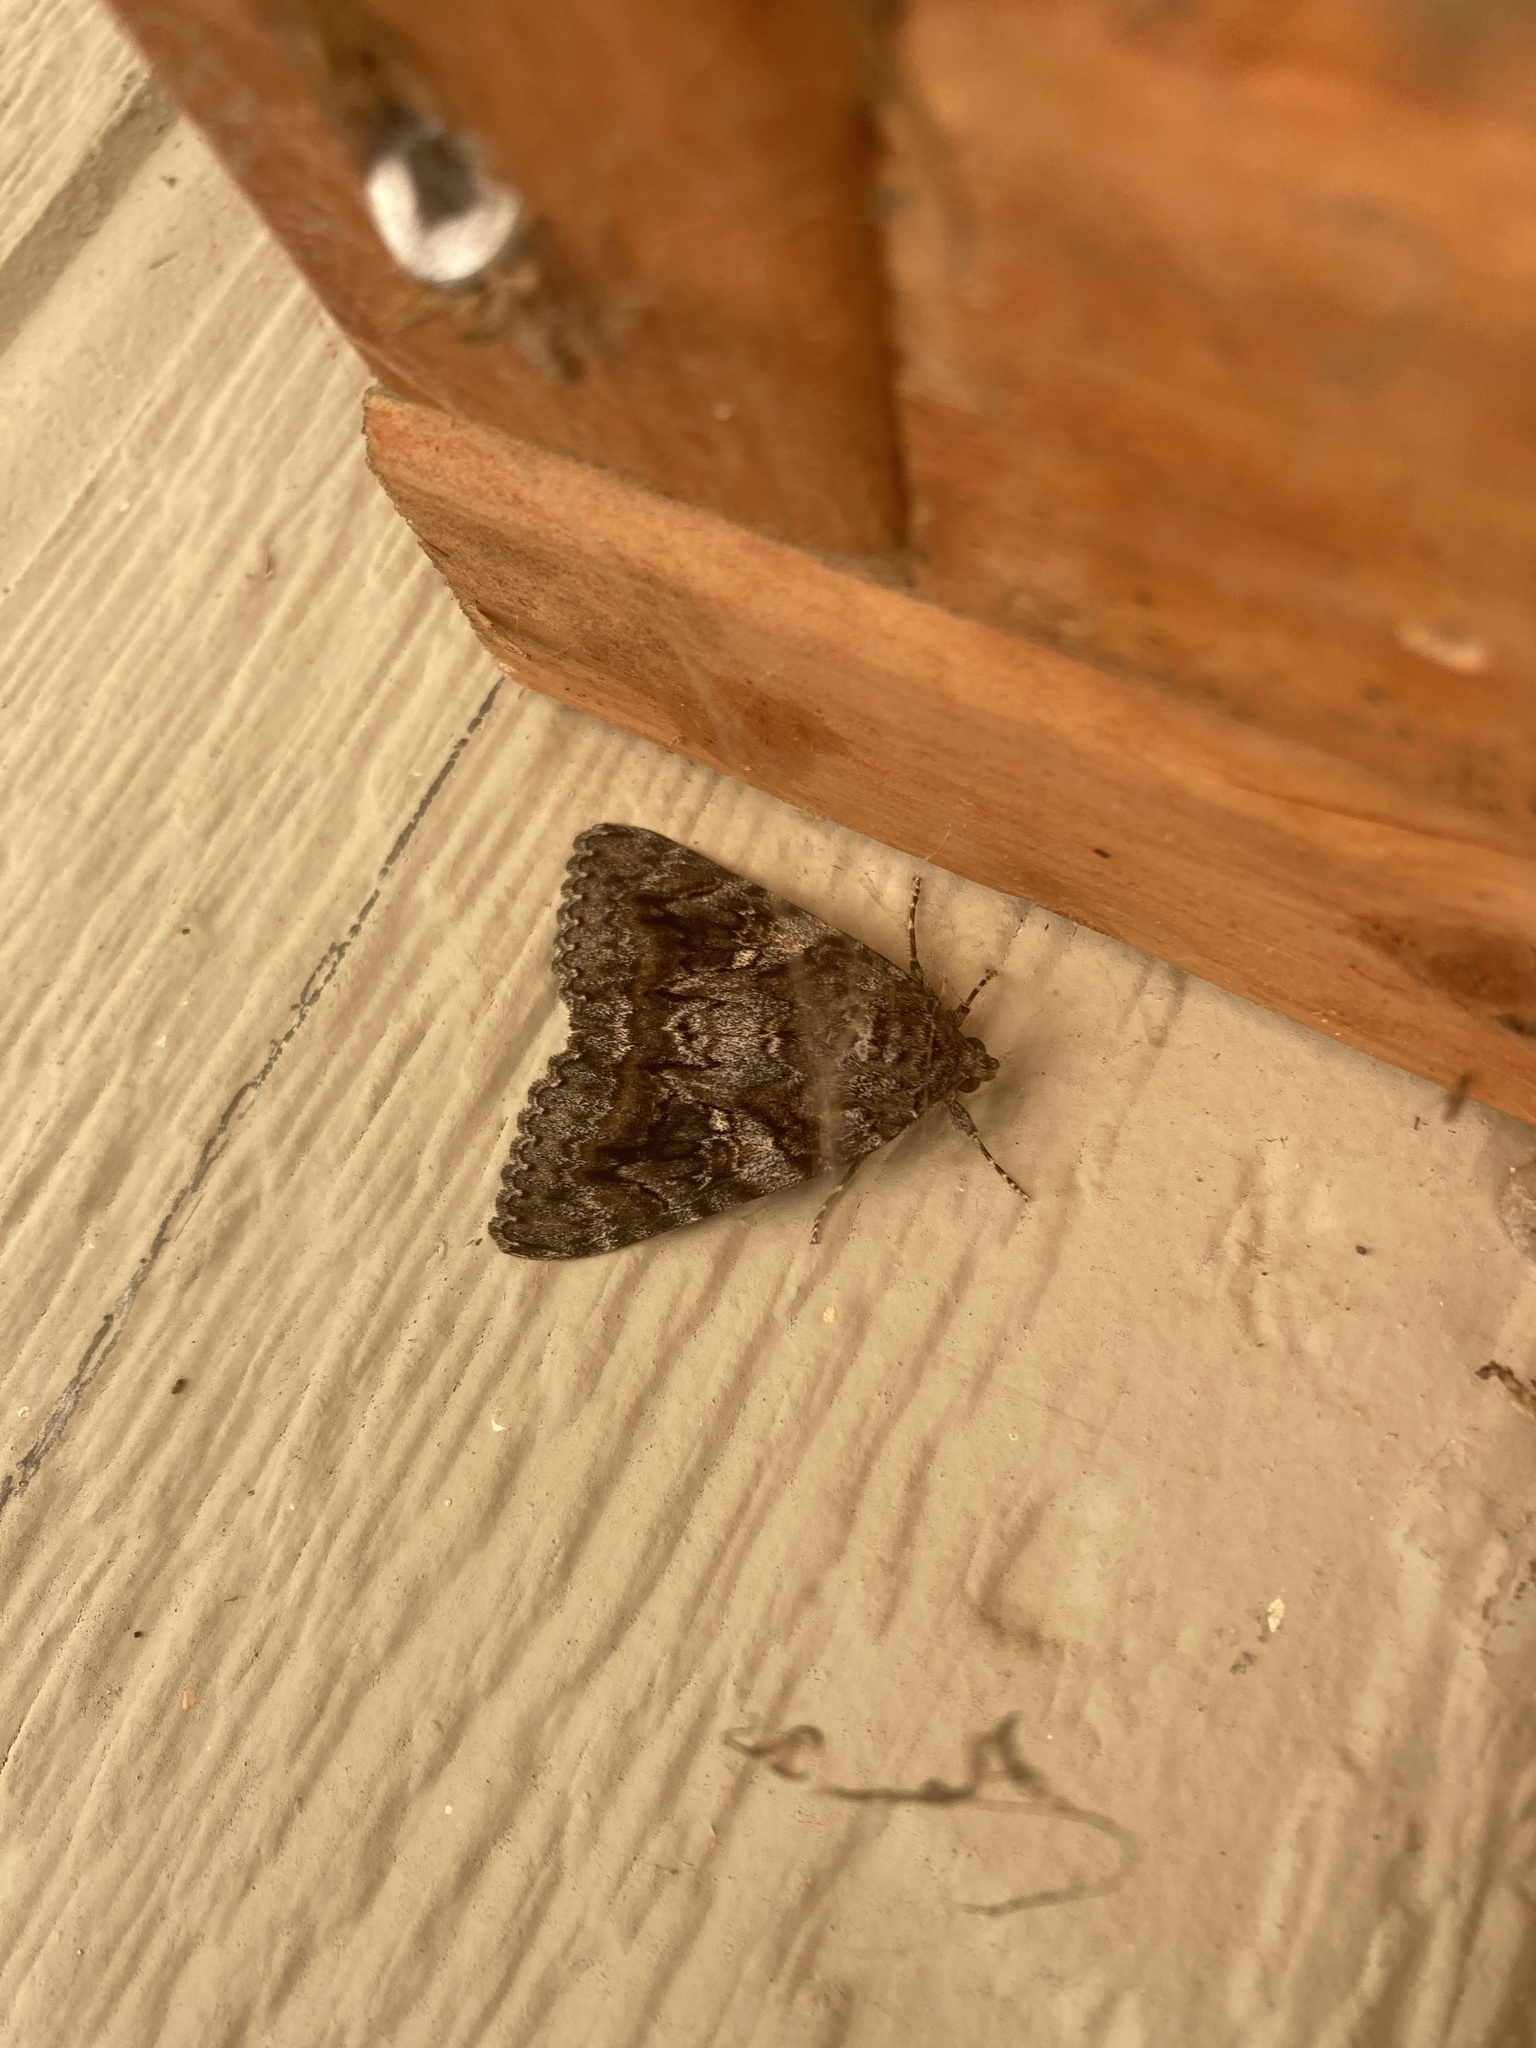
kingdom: Animalia
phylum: Arthropoda
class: Insecta
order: Lepidoptera
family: Erebidae
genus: Catocala
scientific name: Catocala aholibah
